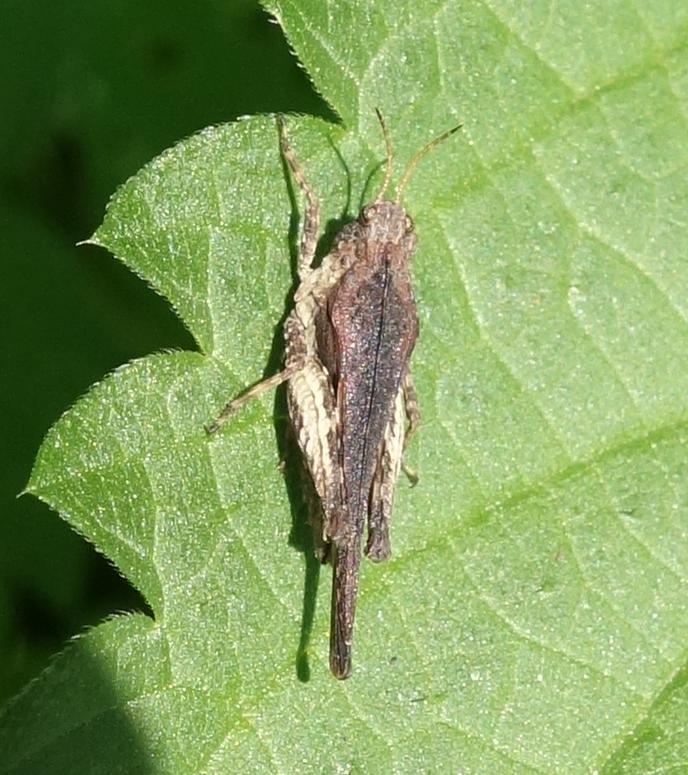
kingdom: Animalia
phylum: Arthropoda
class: Insecta
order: Orthoptera
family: Tetrigidae
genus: Tetrix
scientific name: Tetrix subulata
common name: Slender ground-hopper
